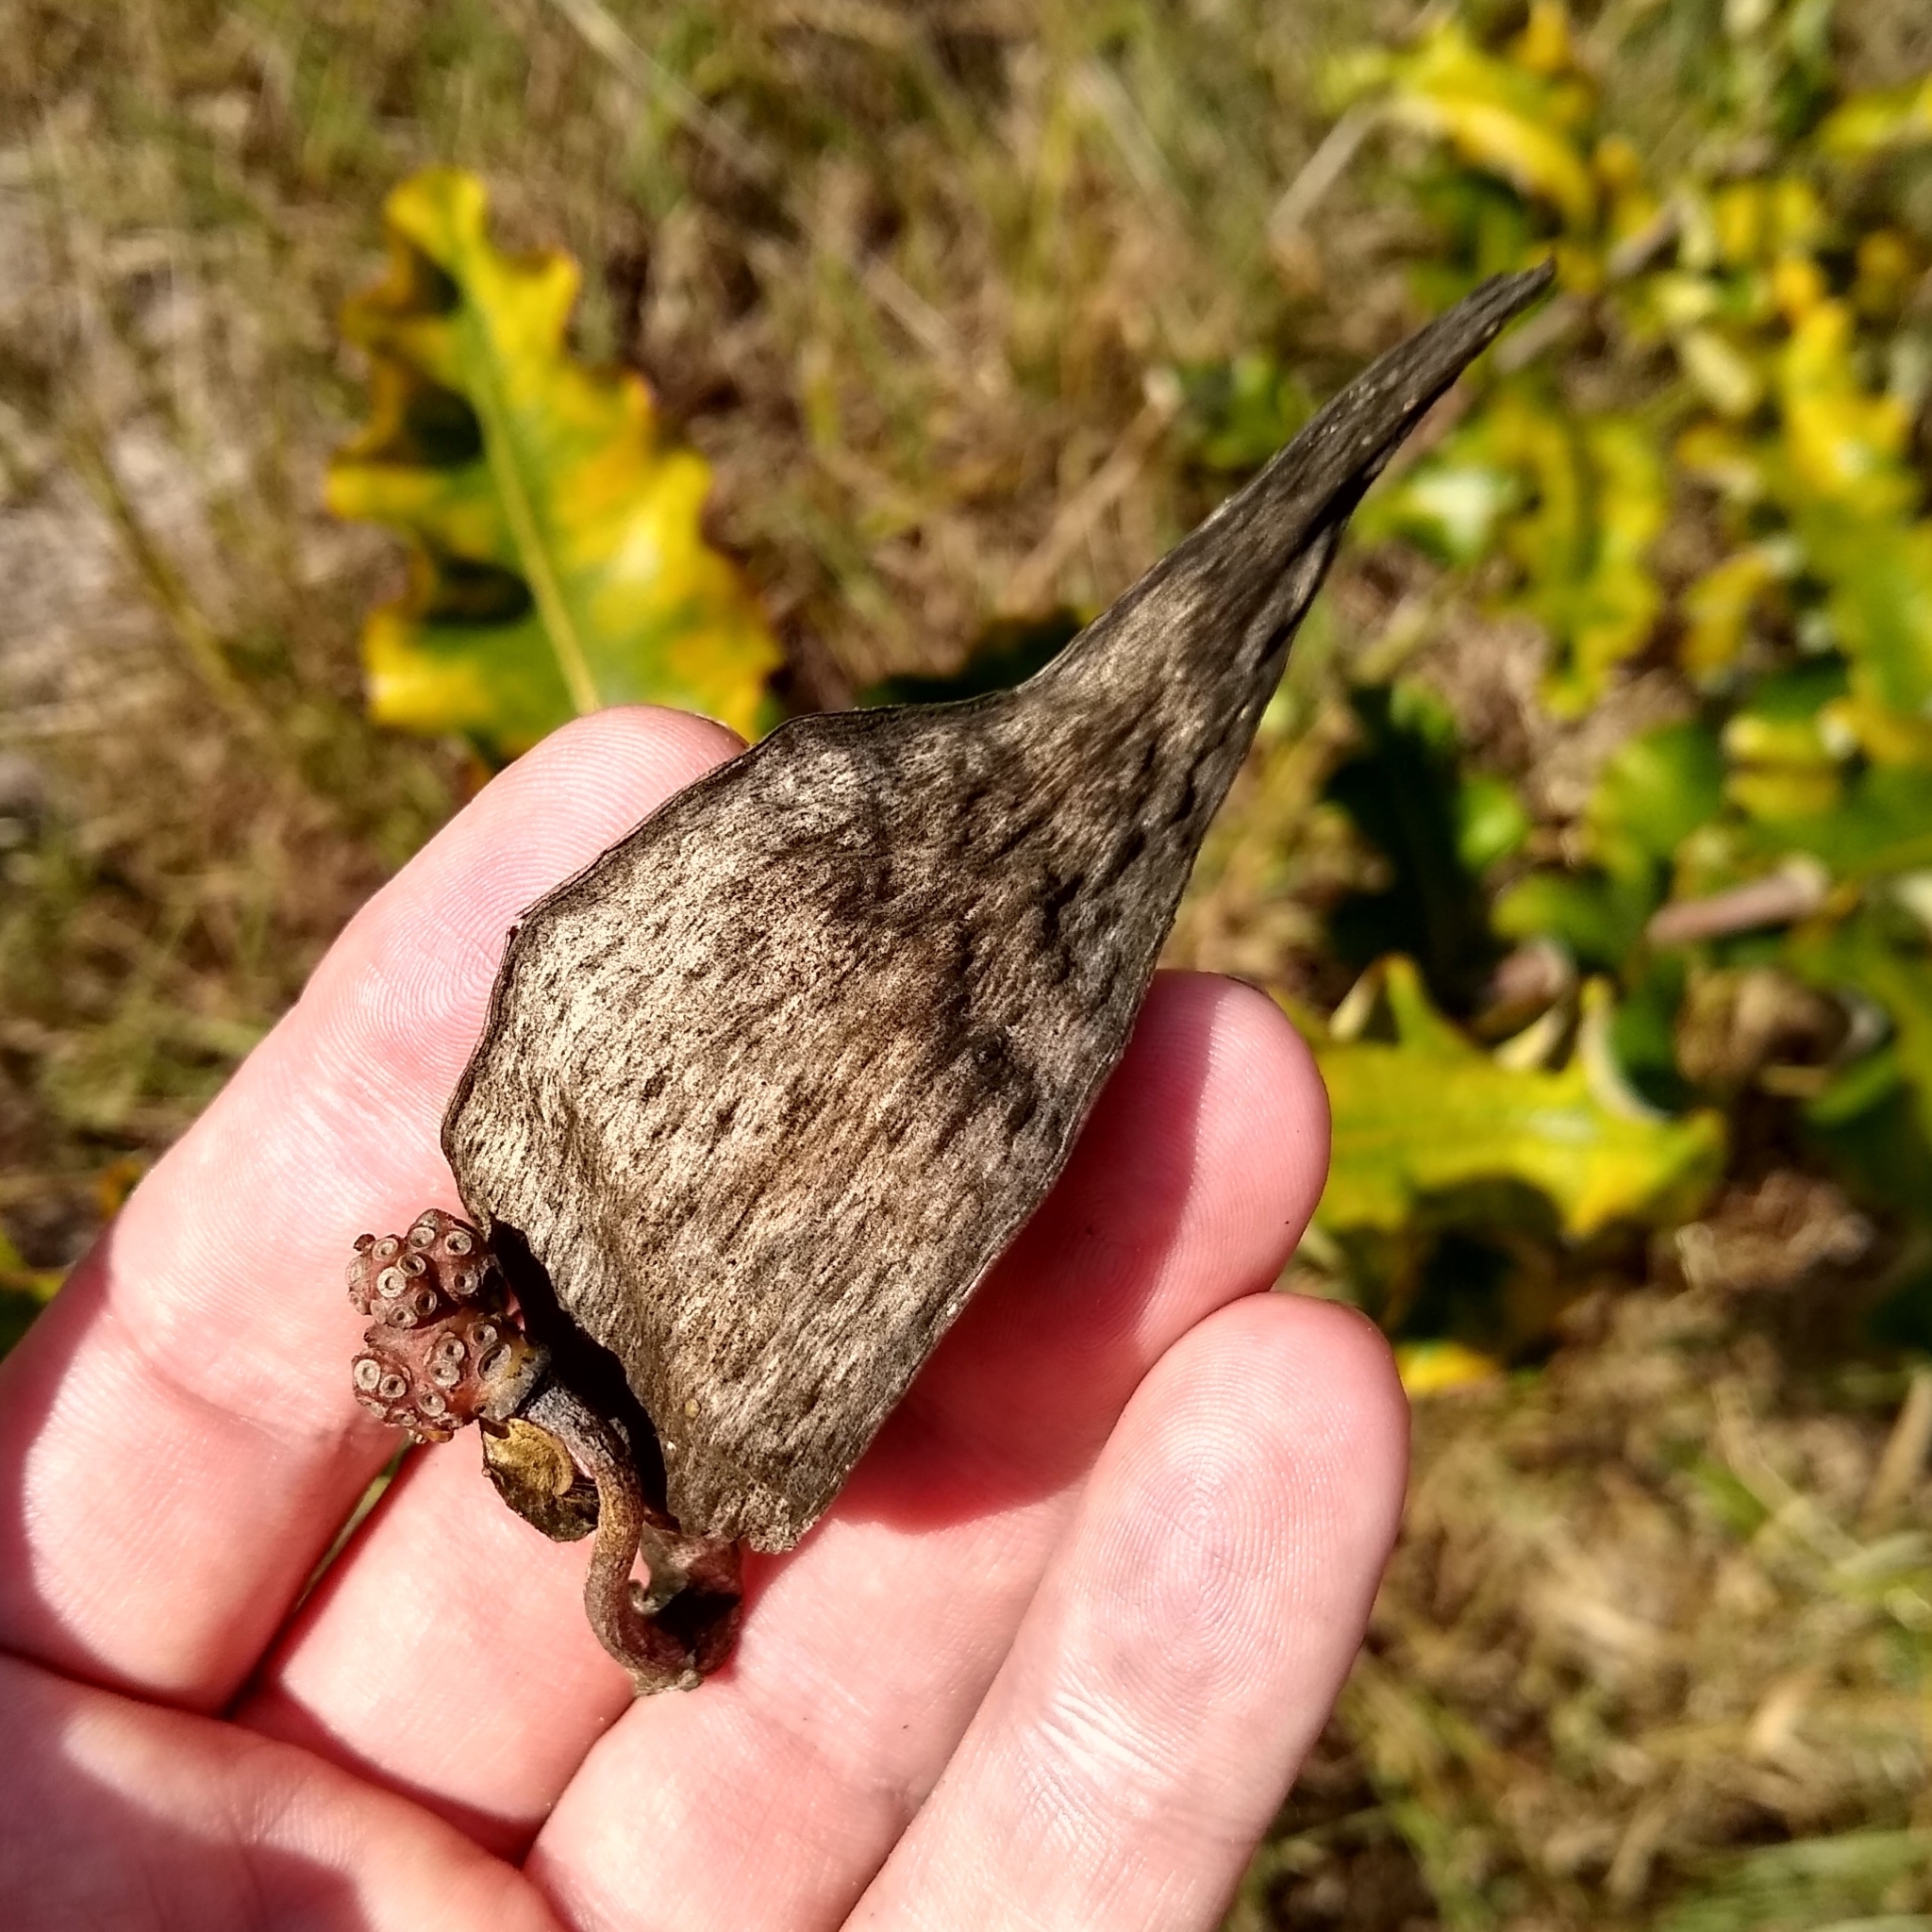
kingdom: Plantae
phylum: Tracheophyta
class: Magnoliopsida
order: Gentianales
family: Apocynaceae
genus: Asclepias
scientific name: Asclepias amplexicaulis
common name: Blunt-leaf milkweed
